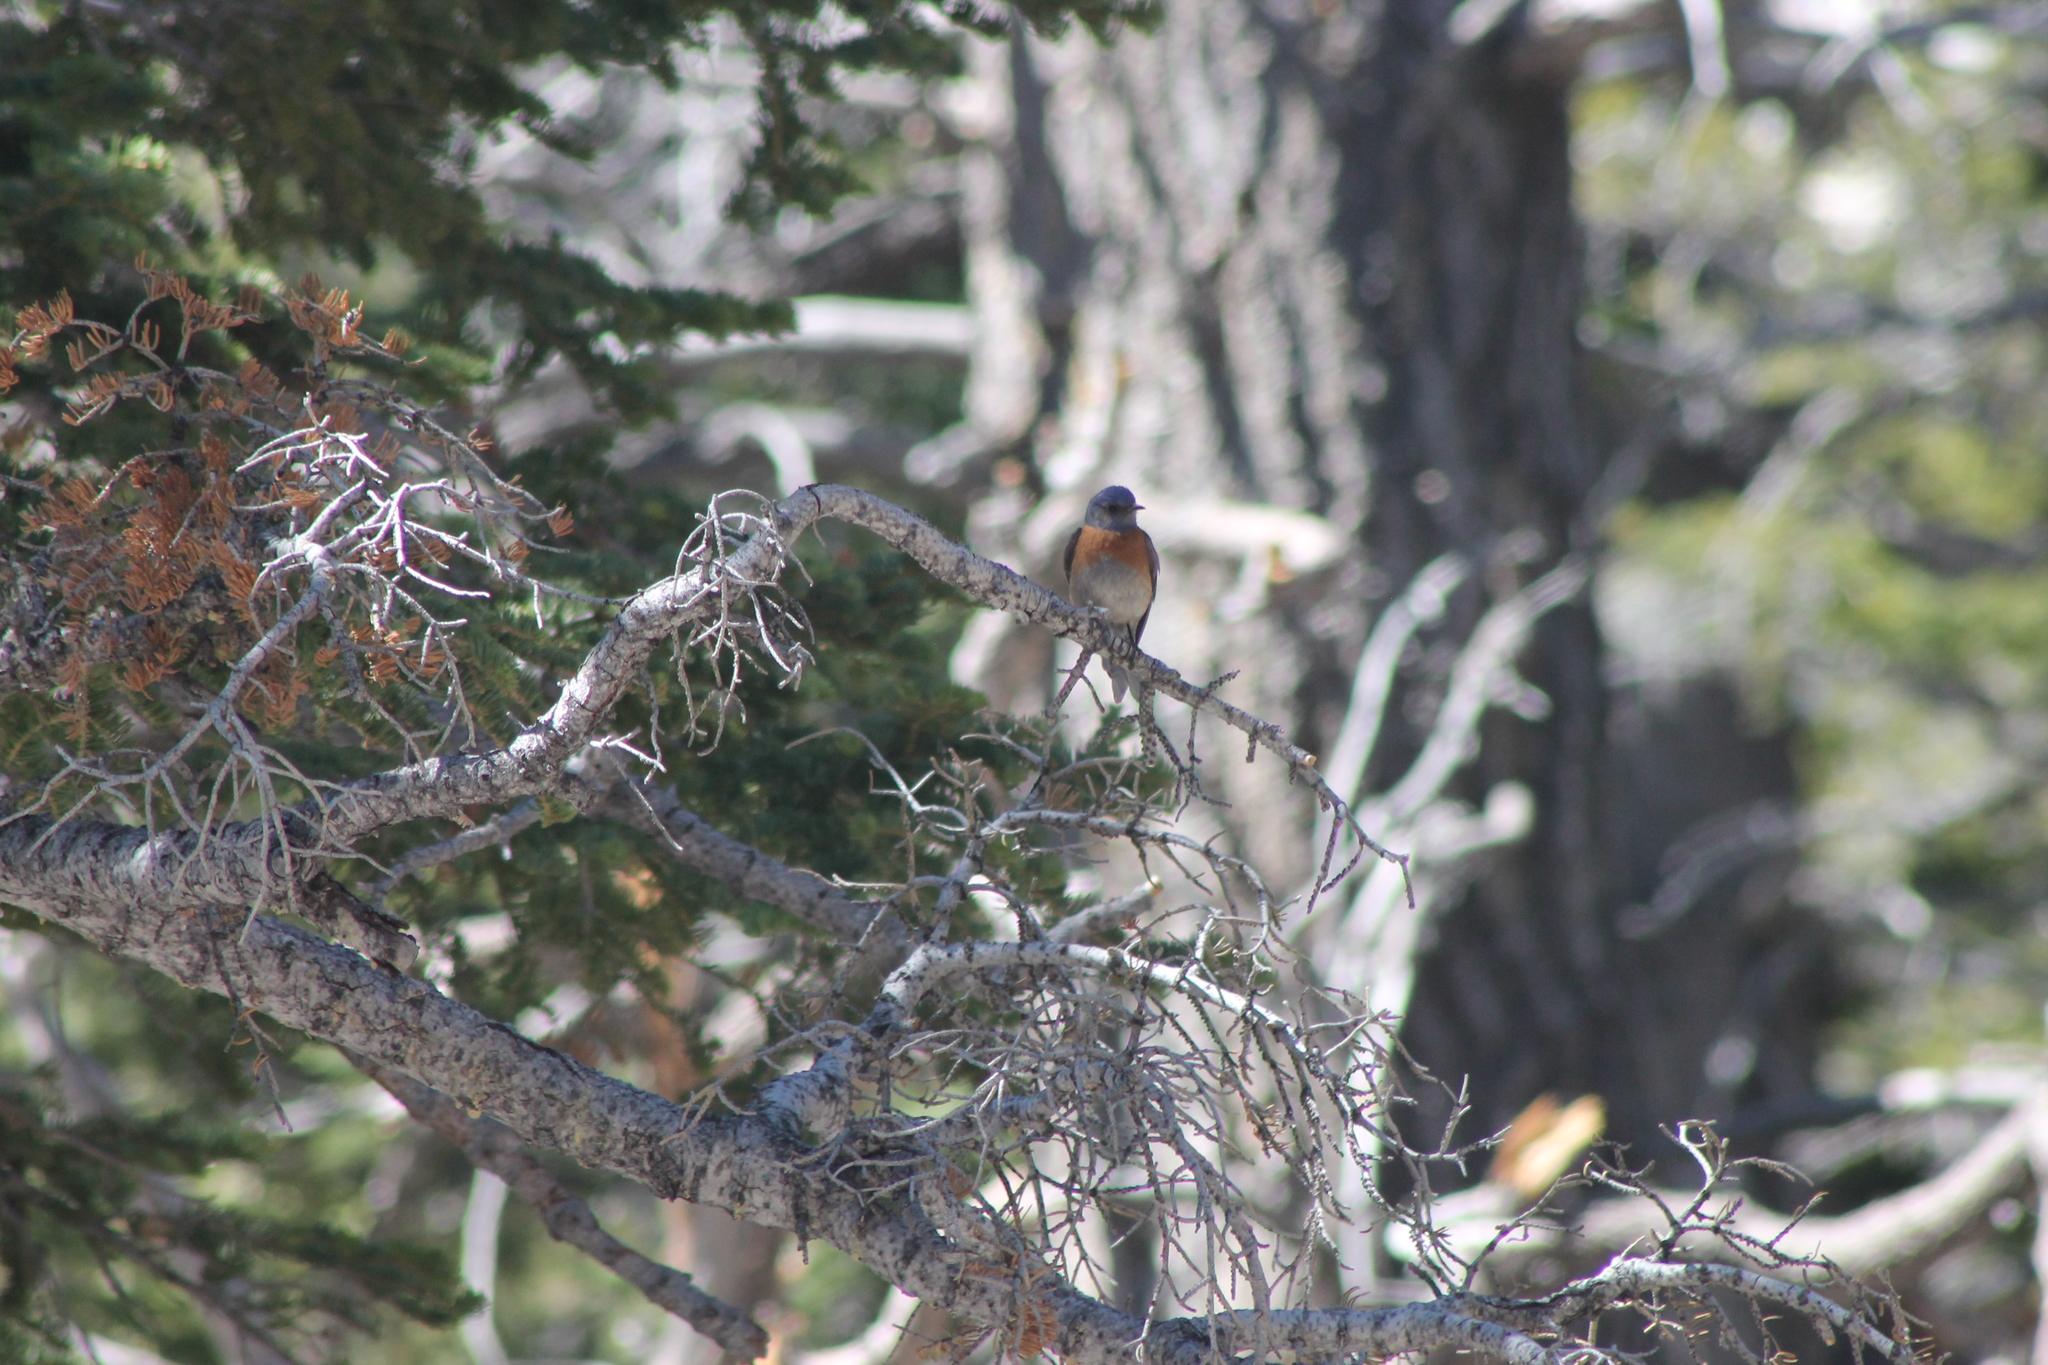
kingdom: Animalia
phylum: Chordata
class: Aves
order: Passeriformes
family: Turdidae
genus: Sialia
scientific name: Sialia mexicana
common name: Western bluebird
